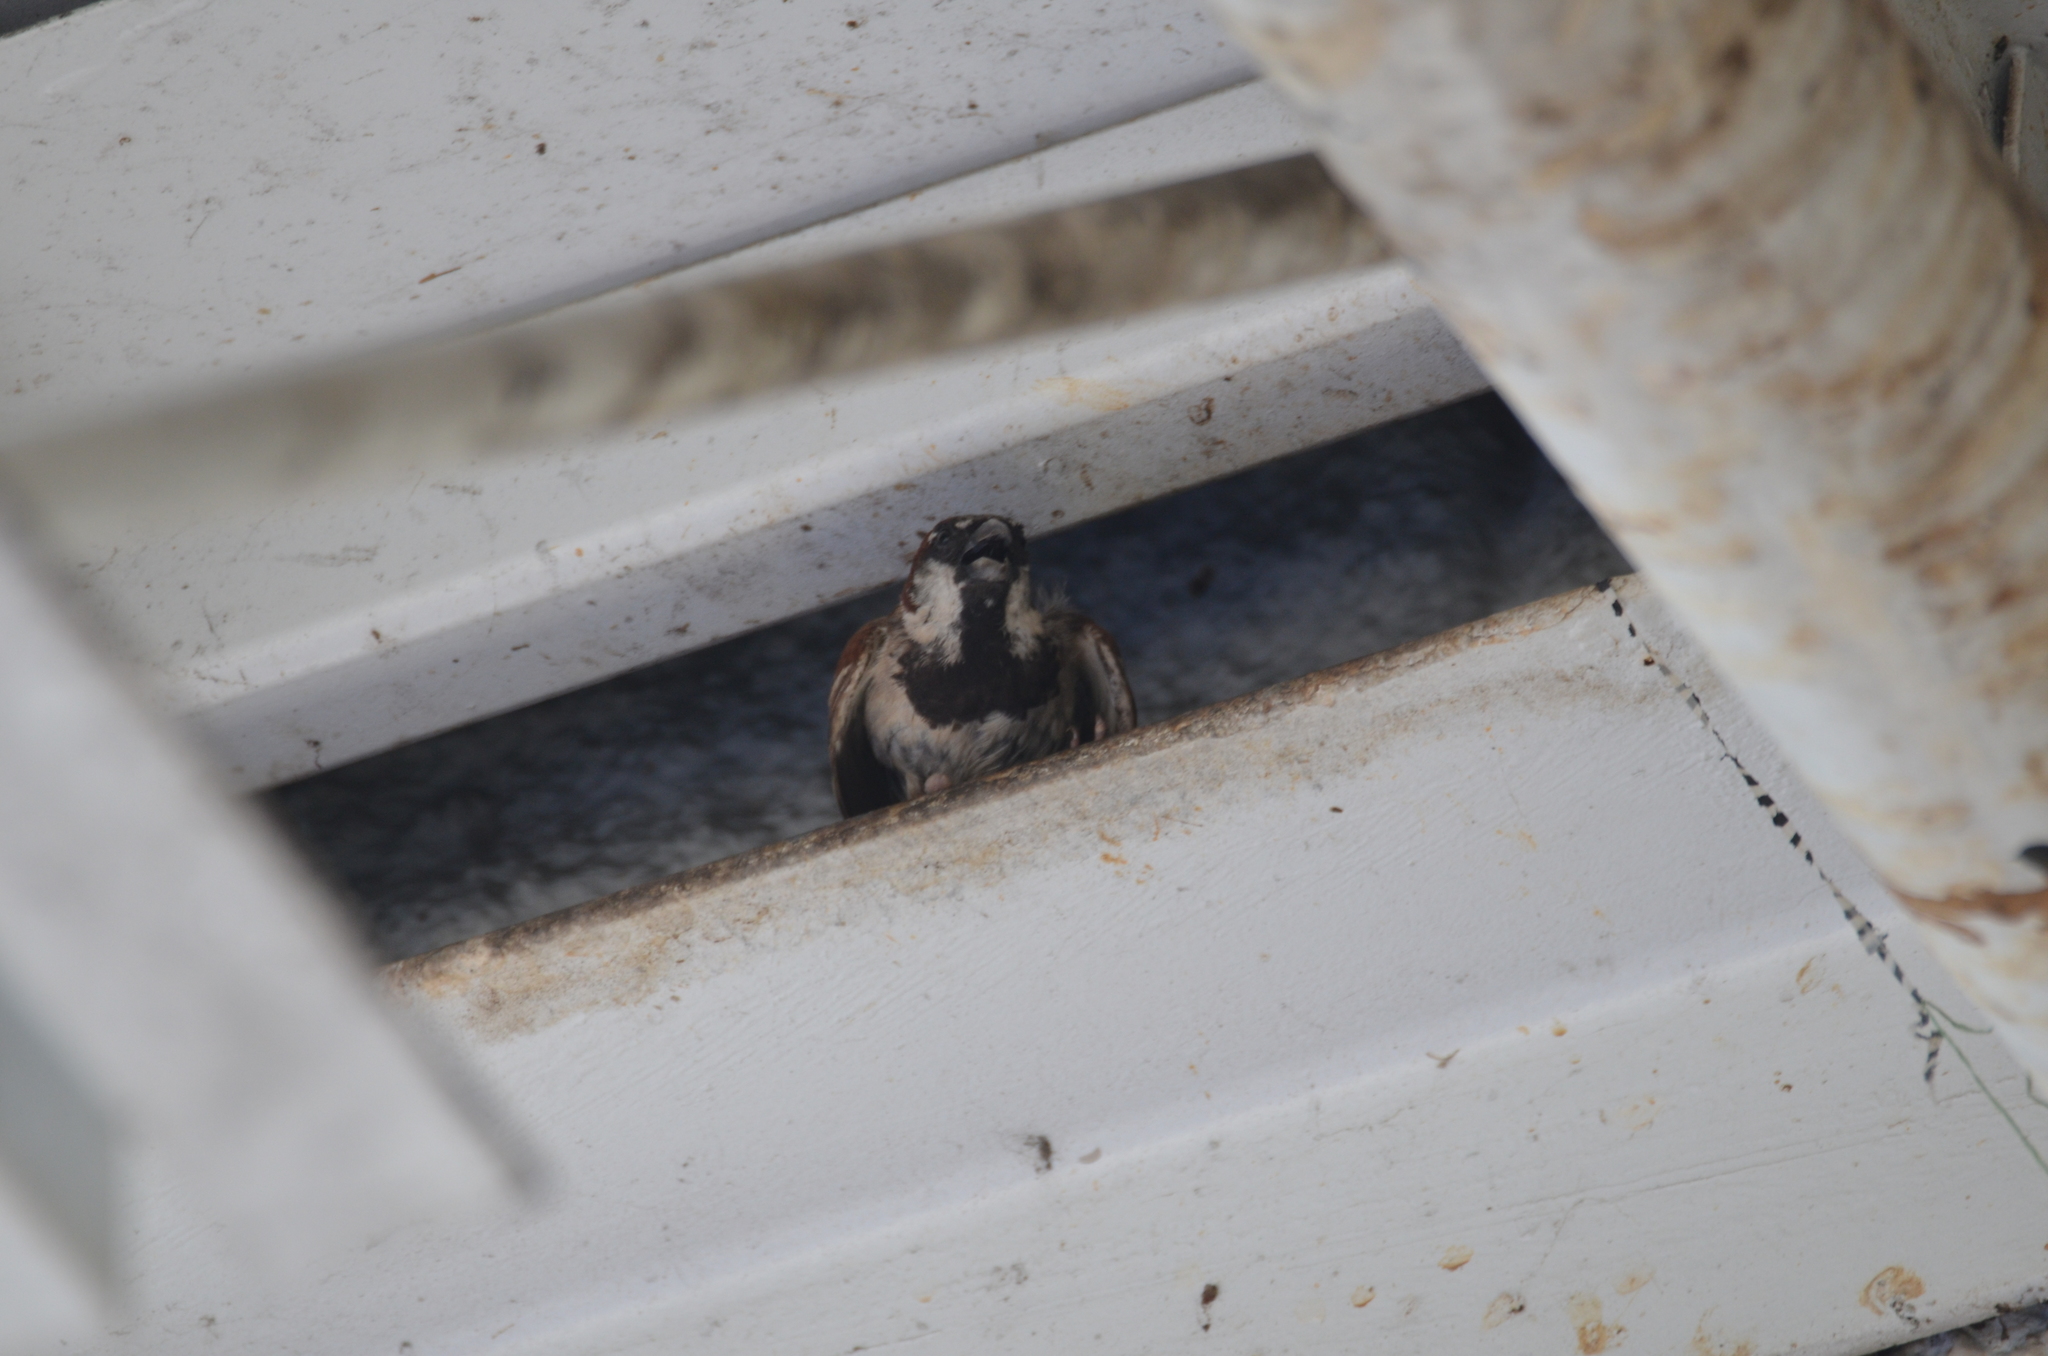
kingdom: Animalia
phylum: Chordata
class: Aves
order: Passeriformes
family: Passeridae
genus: Passer
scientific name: Passer domesticus
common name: House sparrow
